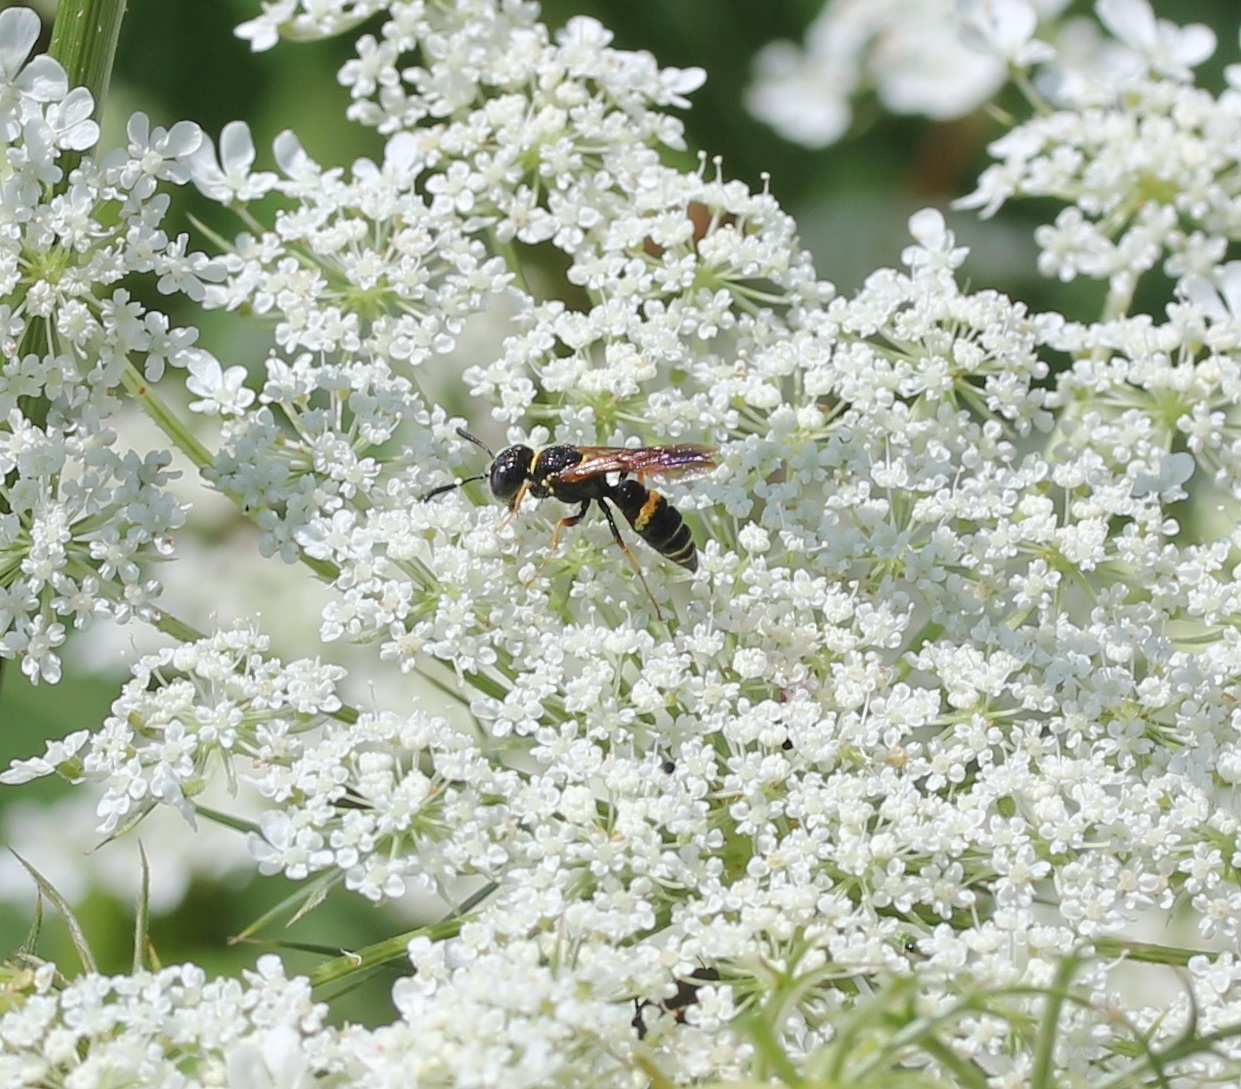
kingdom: Animalia
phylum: Arthropoda
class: Insecta
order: Hymenoptera
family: Crabronidae
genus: Philanthus
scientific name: Philanthus gibbosus
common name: Humped beewolf
